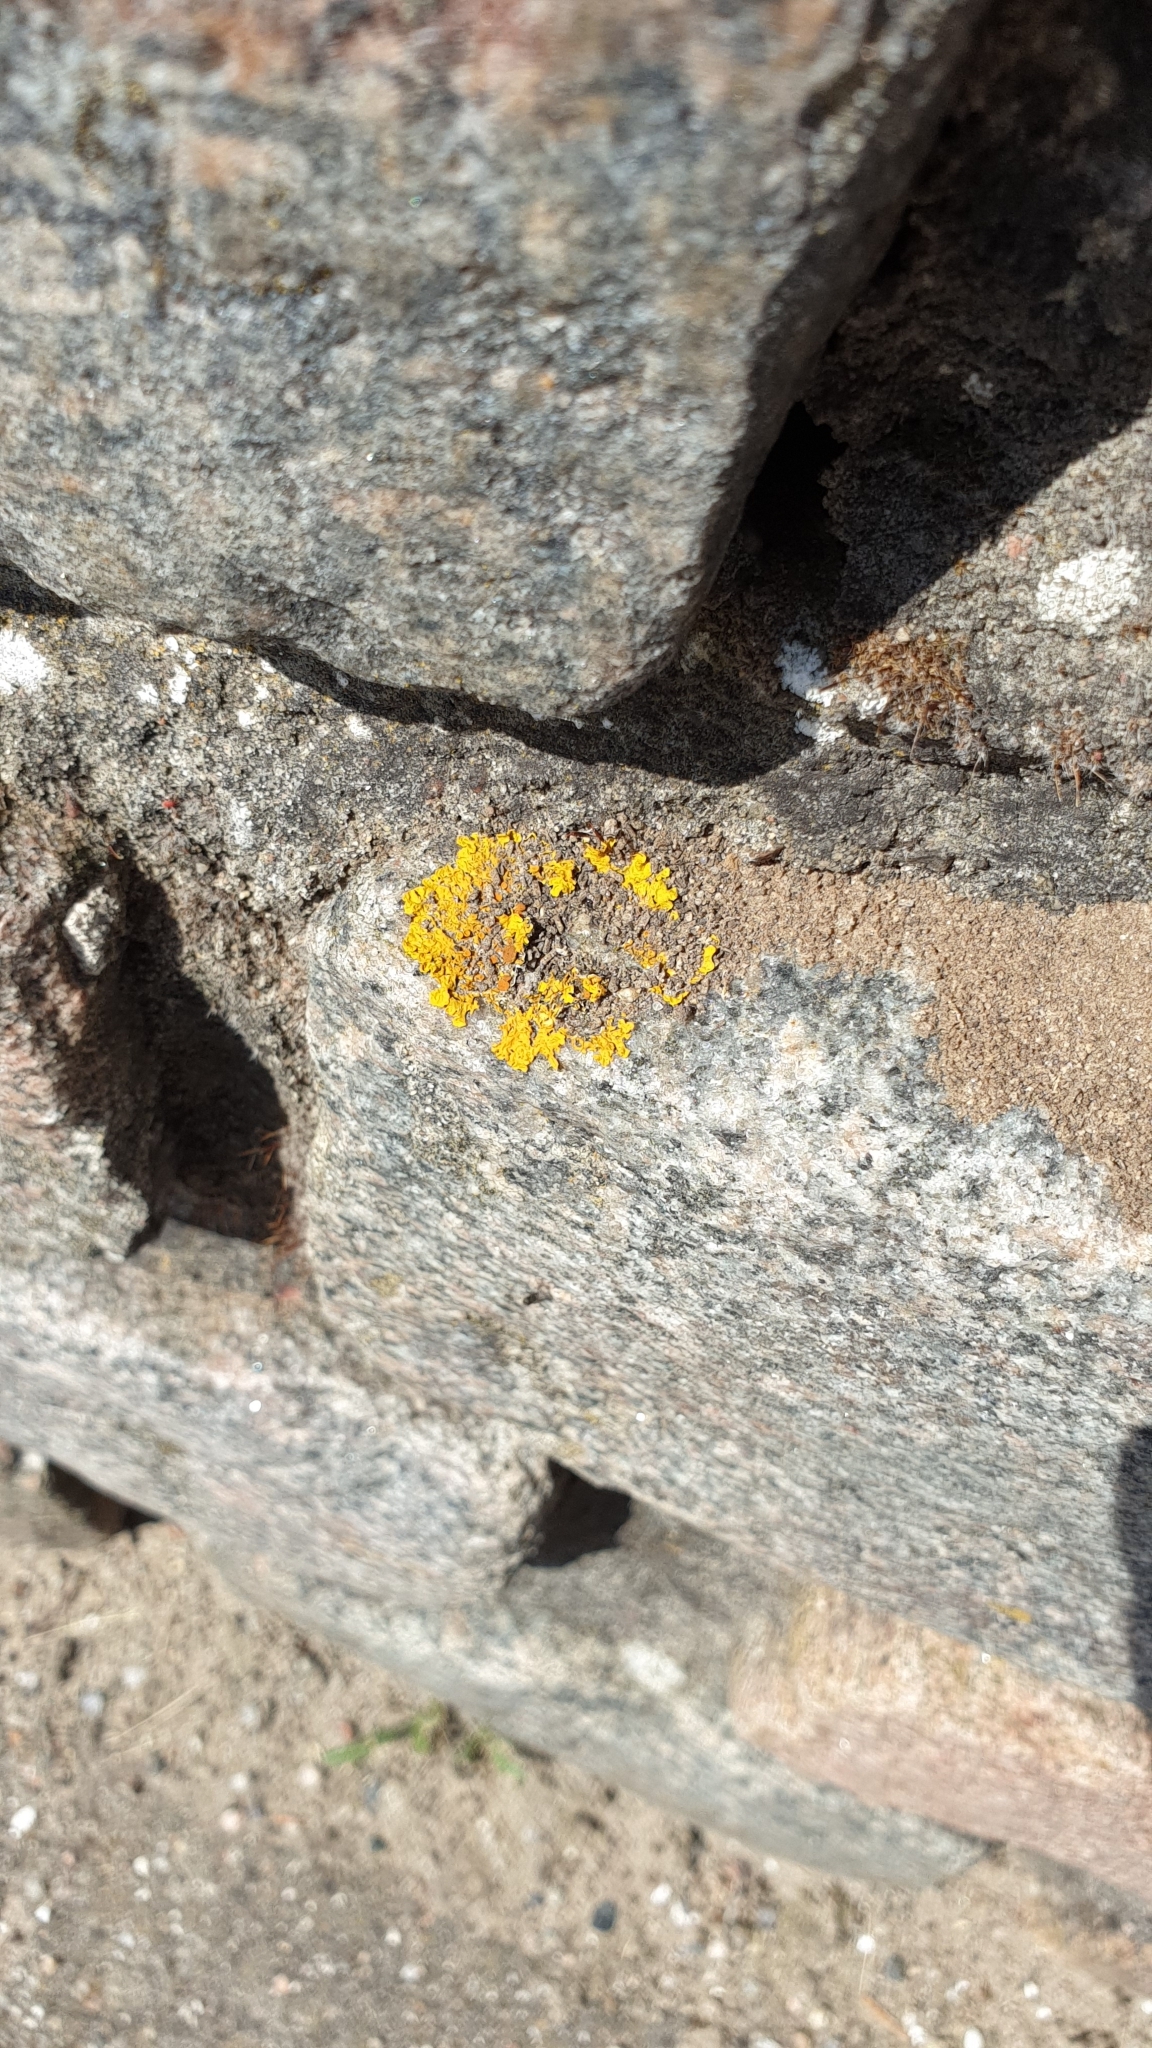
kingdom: Fungi
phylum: Ascomycota
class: Lecanoromycetes
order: Teloschistales
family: Teloschistaceae
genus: Xanthoria
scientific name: Xanthoria parietina
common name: Common orange lichen
